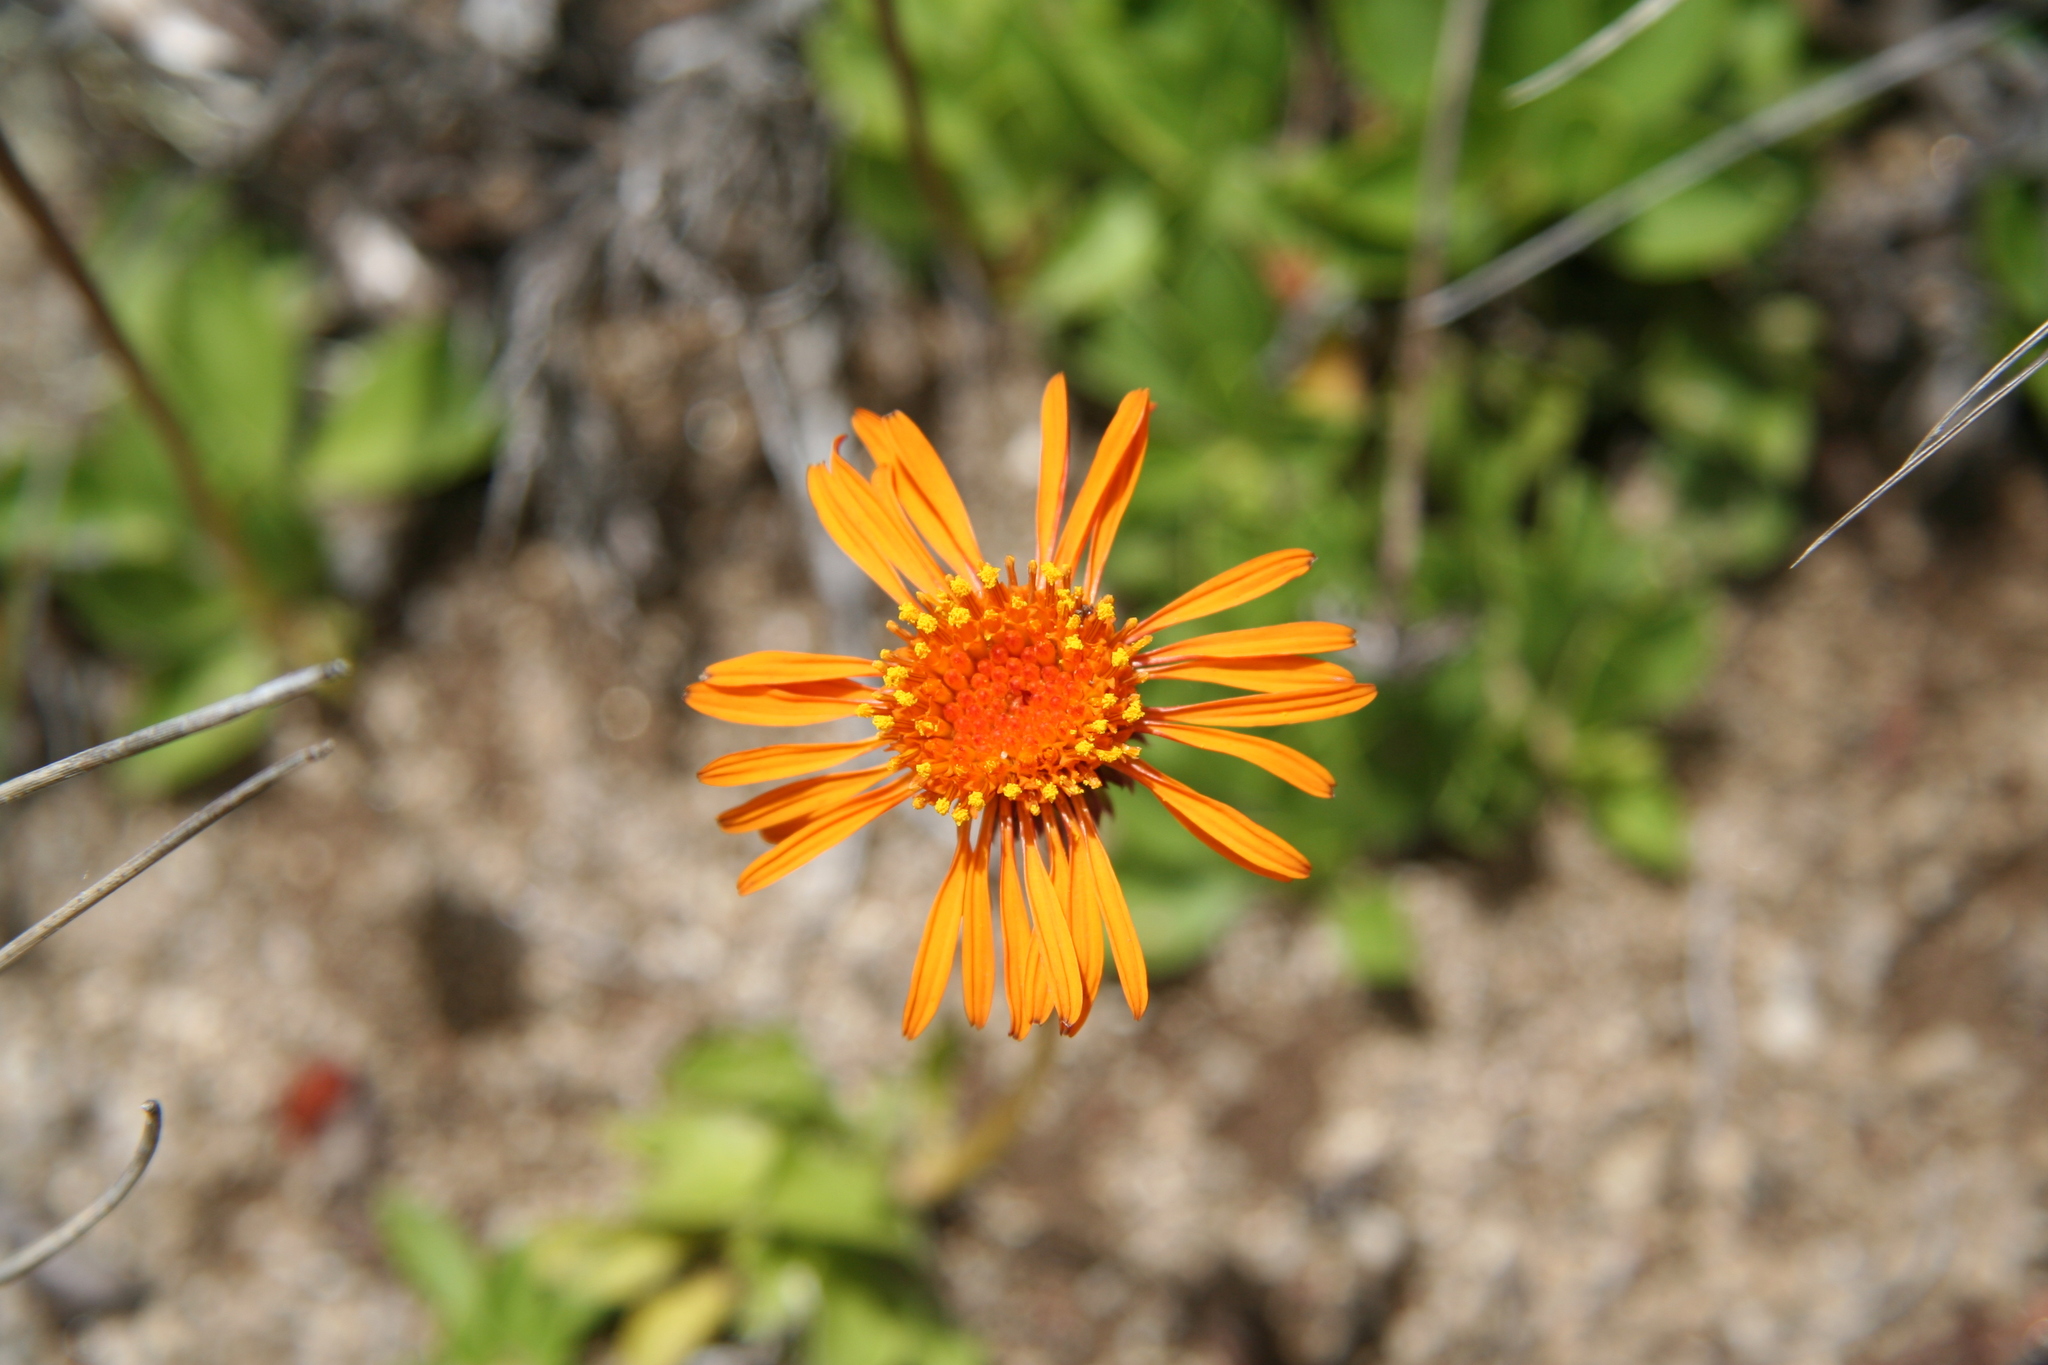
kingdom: Plantae
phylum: Tracheophyta
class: Magnoliopsida
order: Asterales
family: Asteraceae
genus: Haplopappus
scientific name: Haplopappus nahuelbutae
